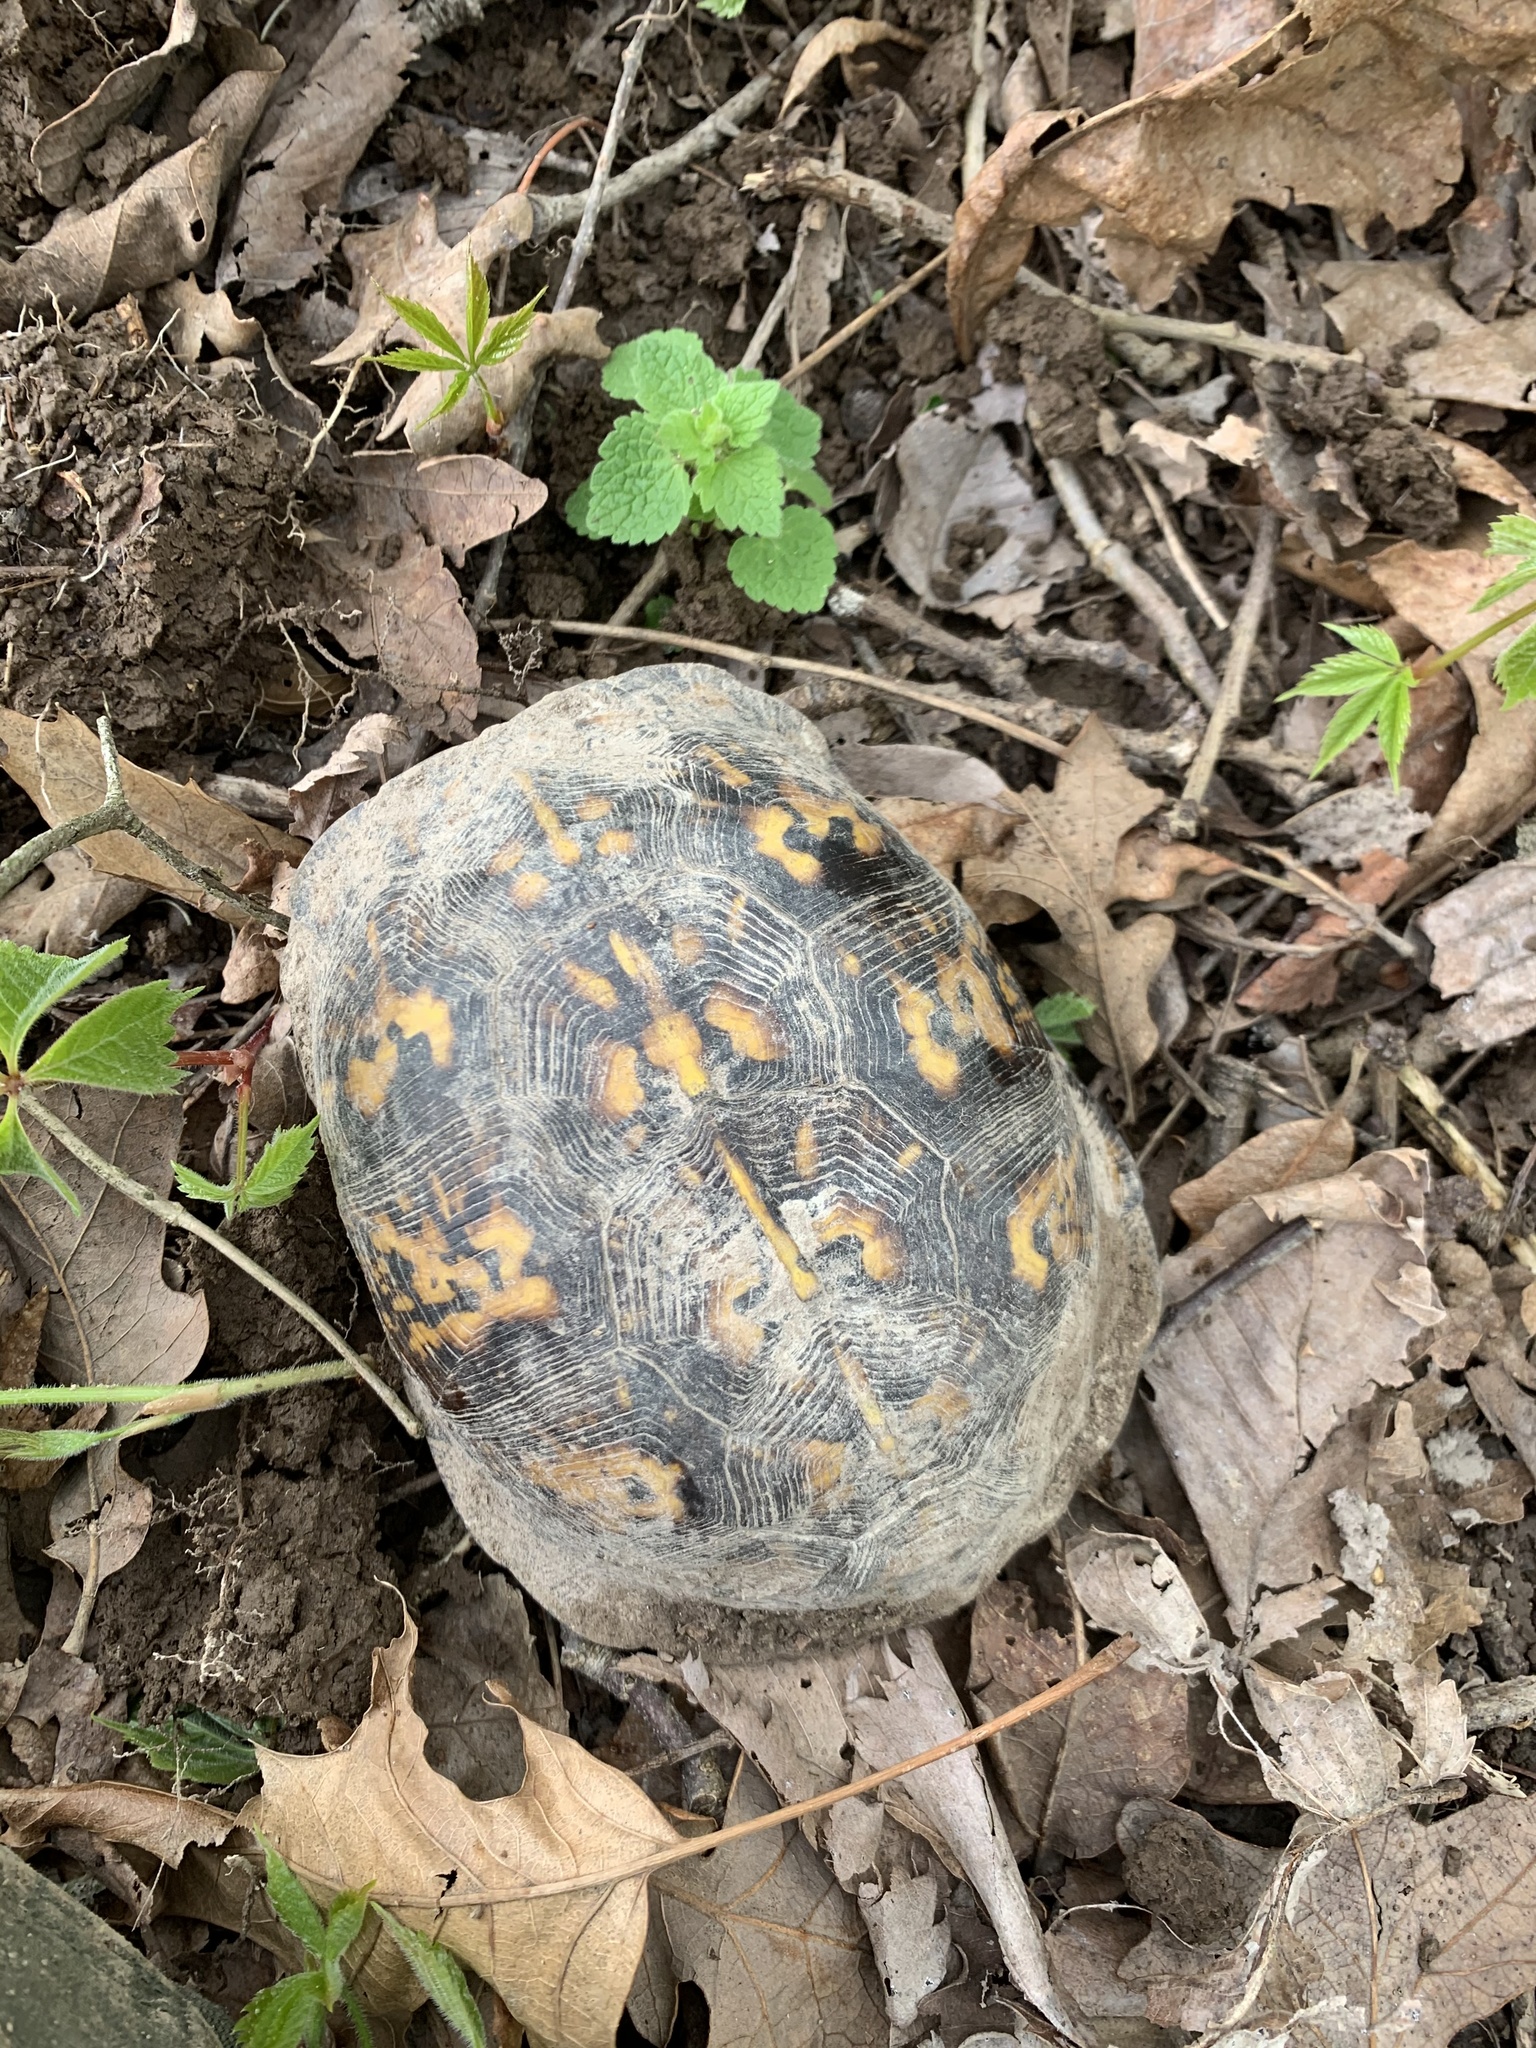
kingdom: Animalia
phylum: Chordata
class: Testudines
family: Emydidae
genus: Terrapene
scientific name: Terrapene carolina
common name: Common box turtle
